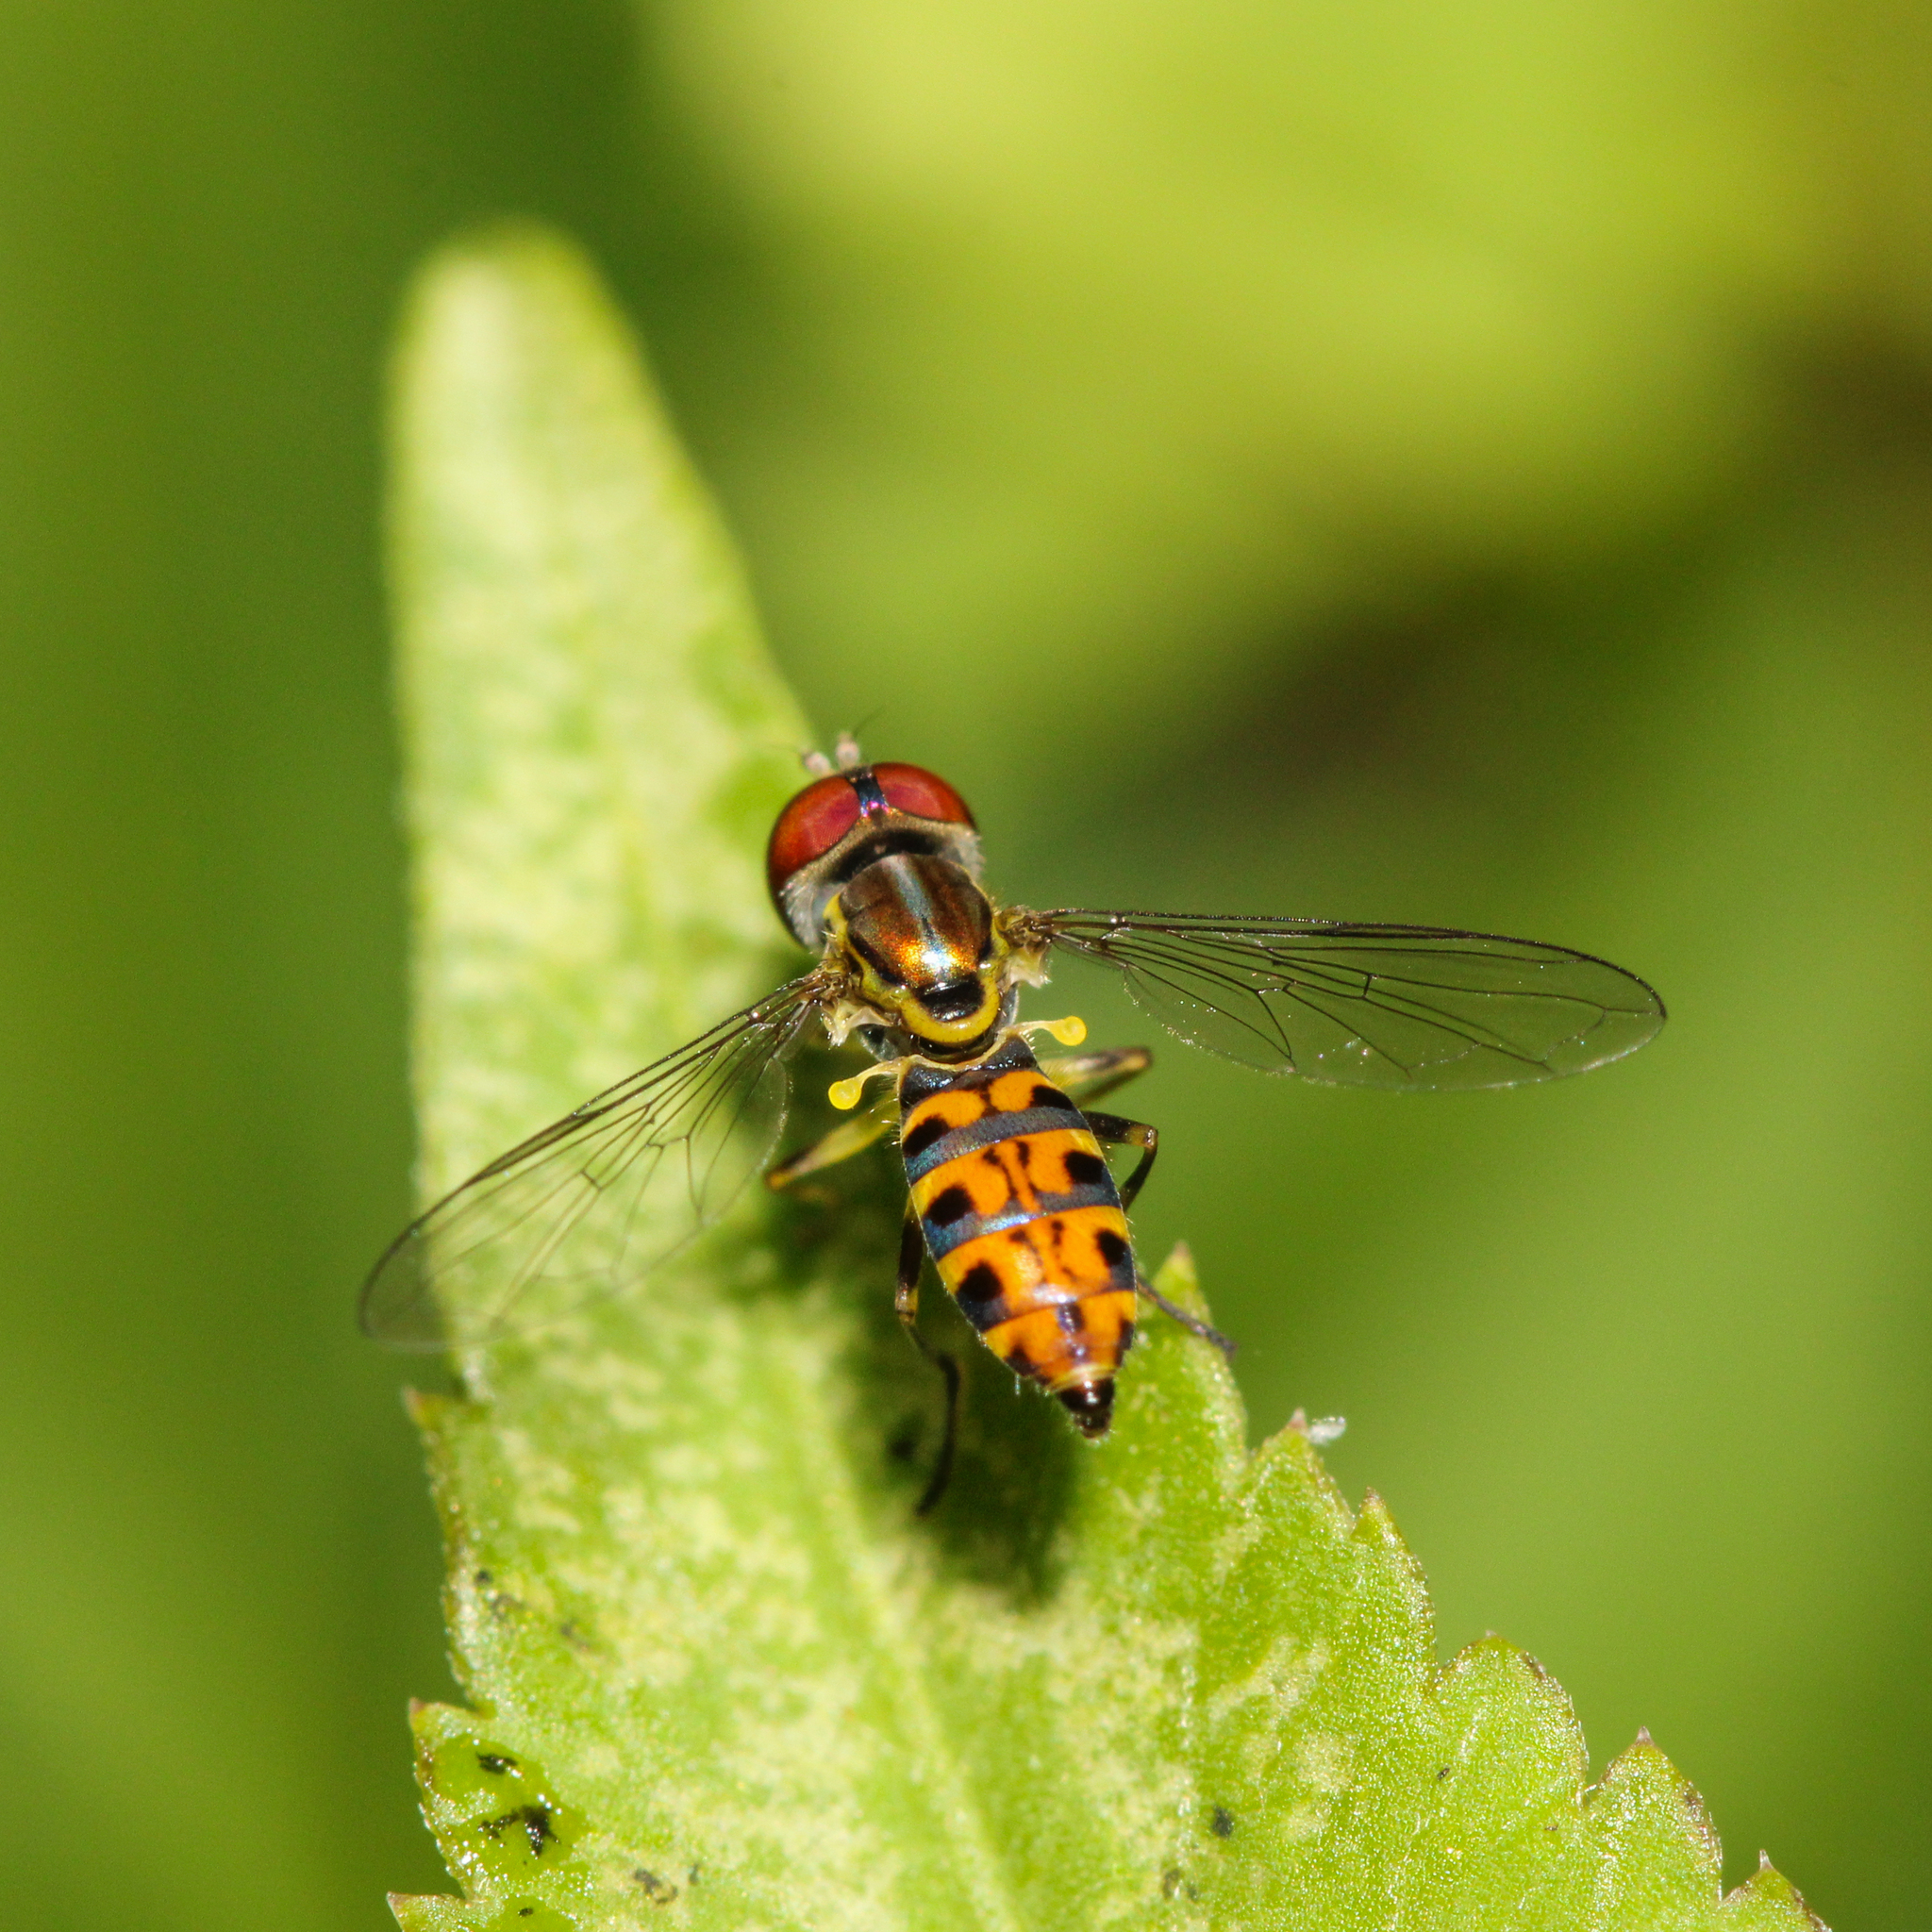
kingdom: Animalia
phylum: Arthropoda
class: Insecta
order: Diptera
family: Syrphidae
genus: Toxomerus
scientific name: Toxomerus arcifer
